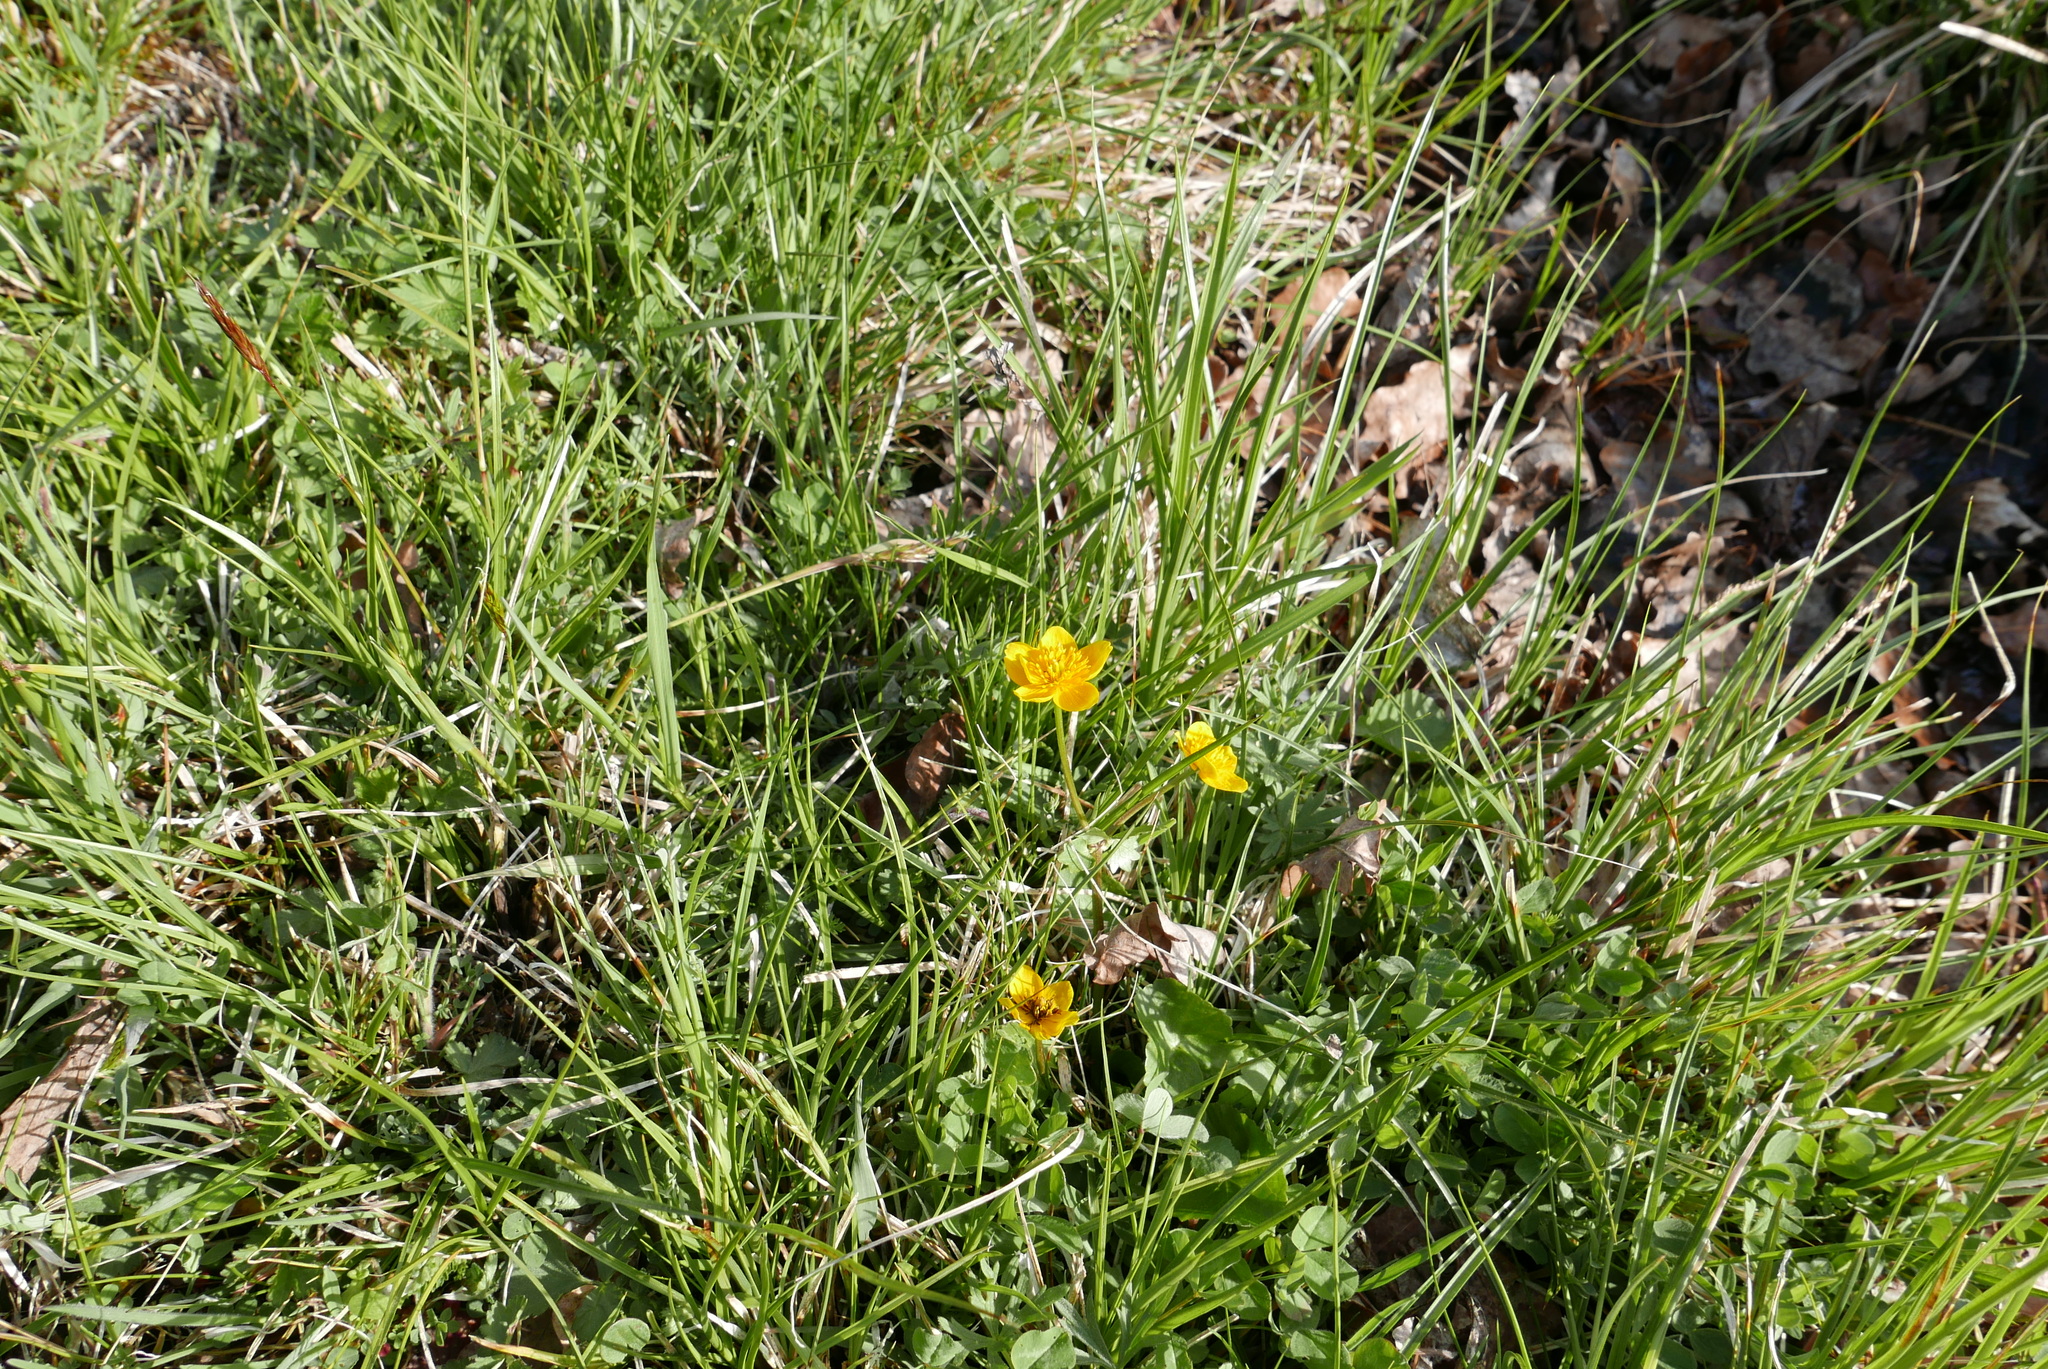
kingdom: Plantae
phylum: Tracheophyta
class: Magnoliopsida
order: Ranunculales
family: Ranunculaceae
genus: Caltha
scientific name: Caltha palustris
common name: Marsh marigold
